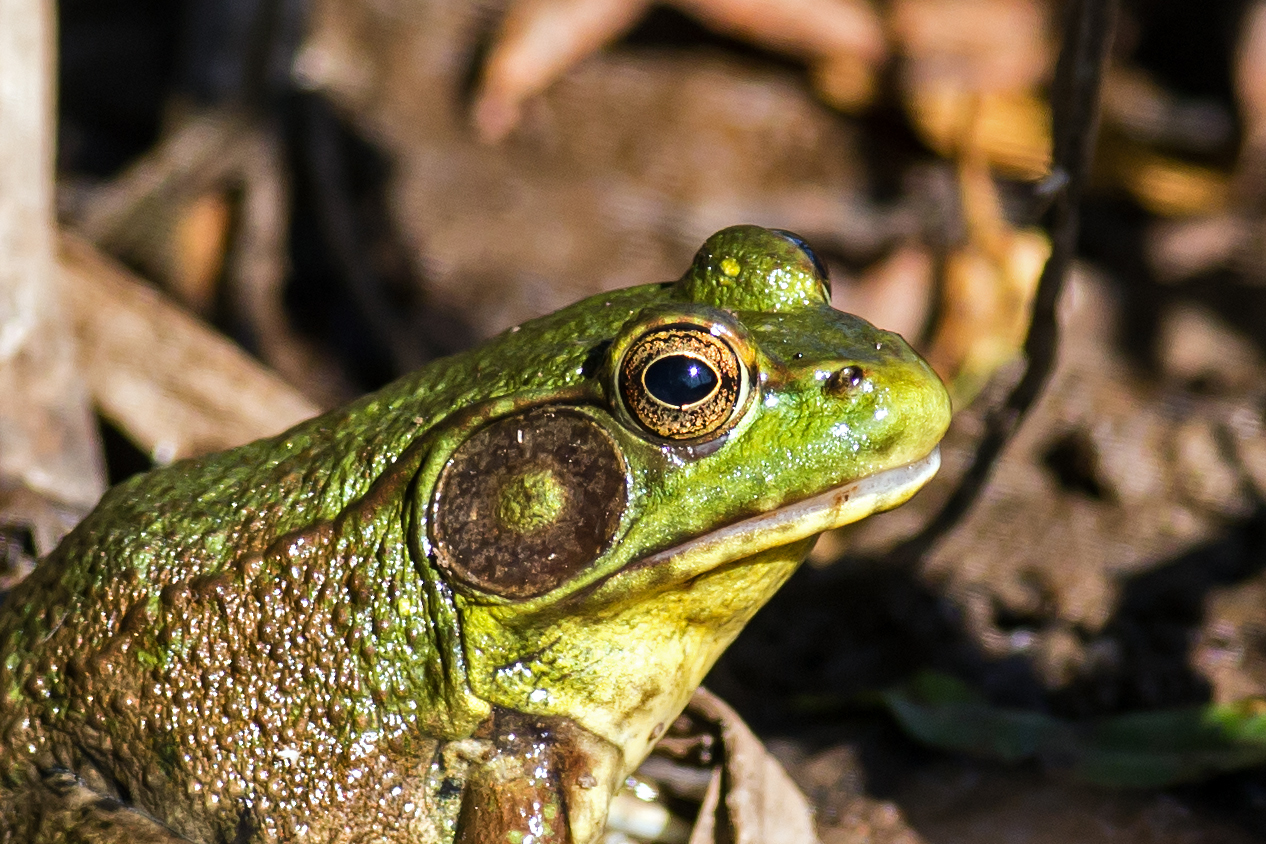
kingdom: Animalia
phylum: Chordata
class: Amphibia
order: Anura
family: Ranidae
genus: Lithobates
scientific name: Lithobates clamitans
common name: Green frog
